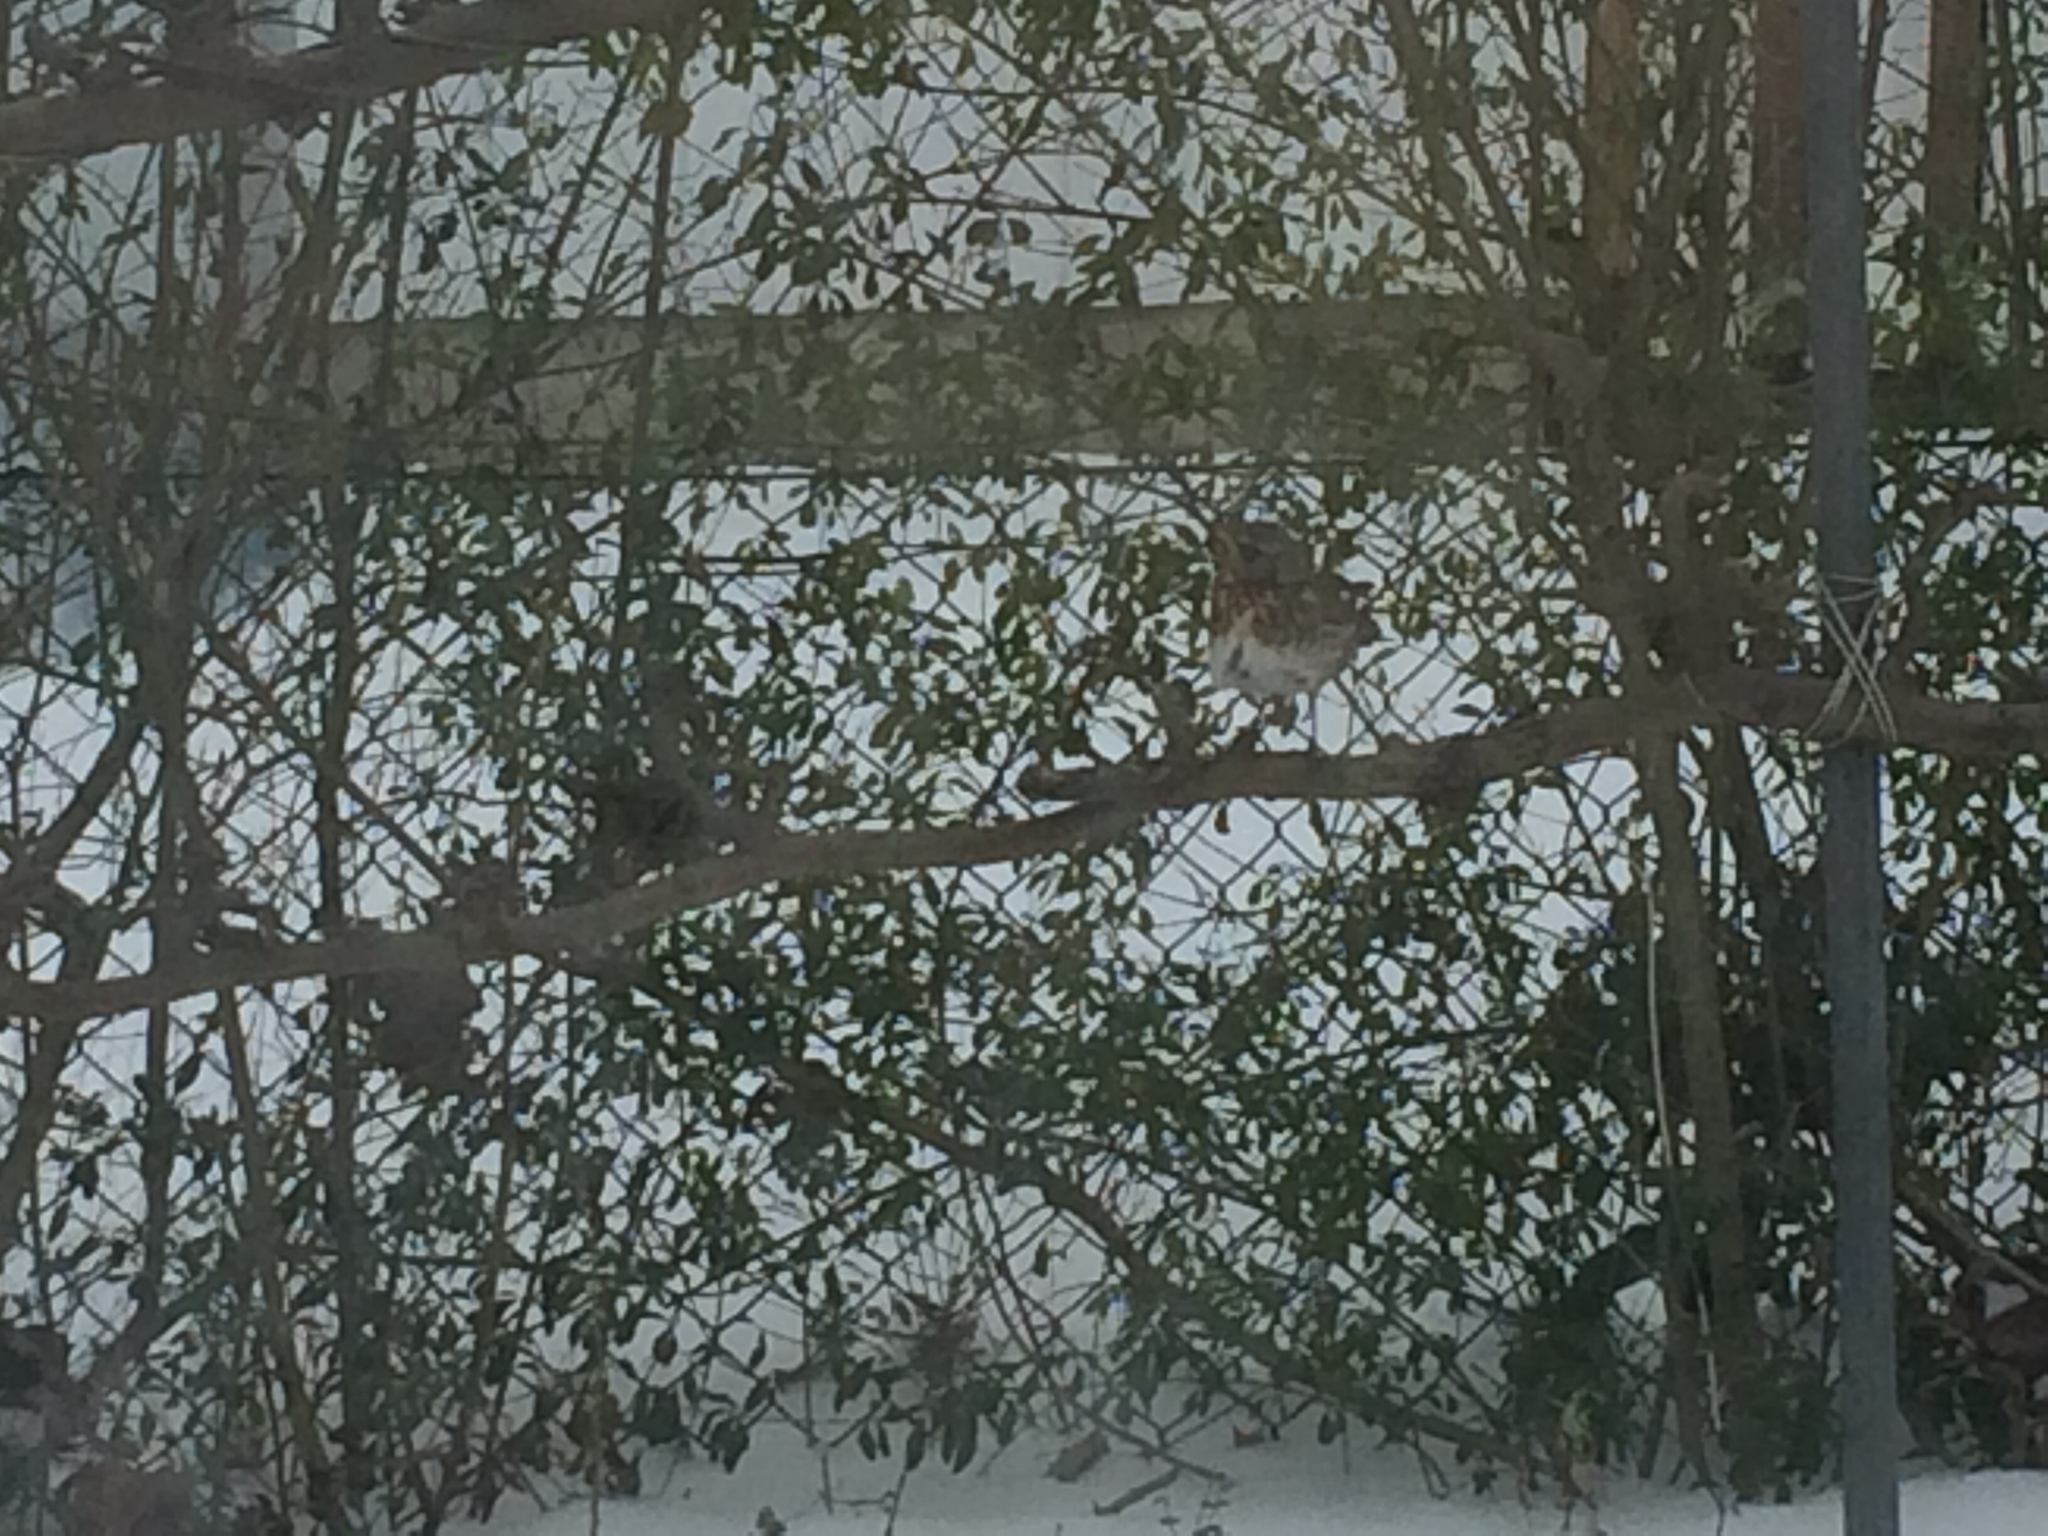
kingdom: Animalia
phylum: Chordata
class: Aves
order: Passeriformes
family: Turdidae
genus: Turdus
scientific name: Turdus pilaris
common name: Fieldfare
